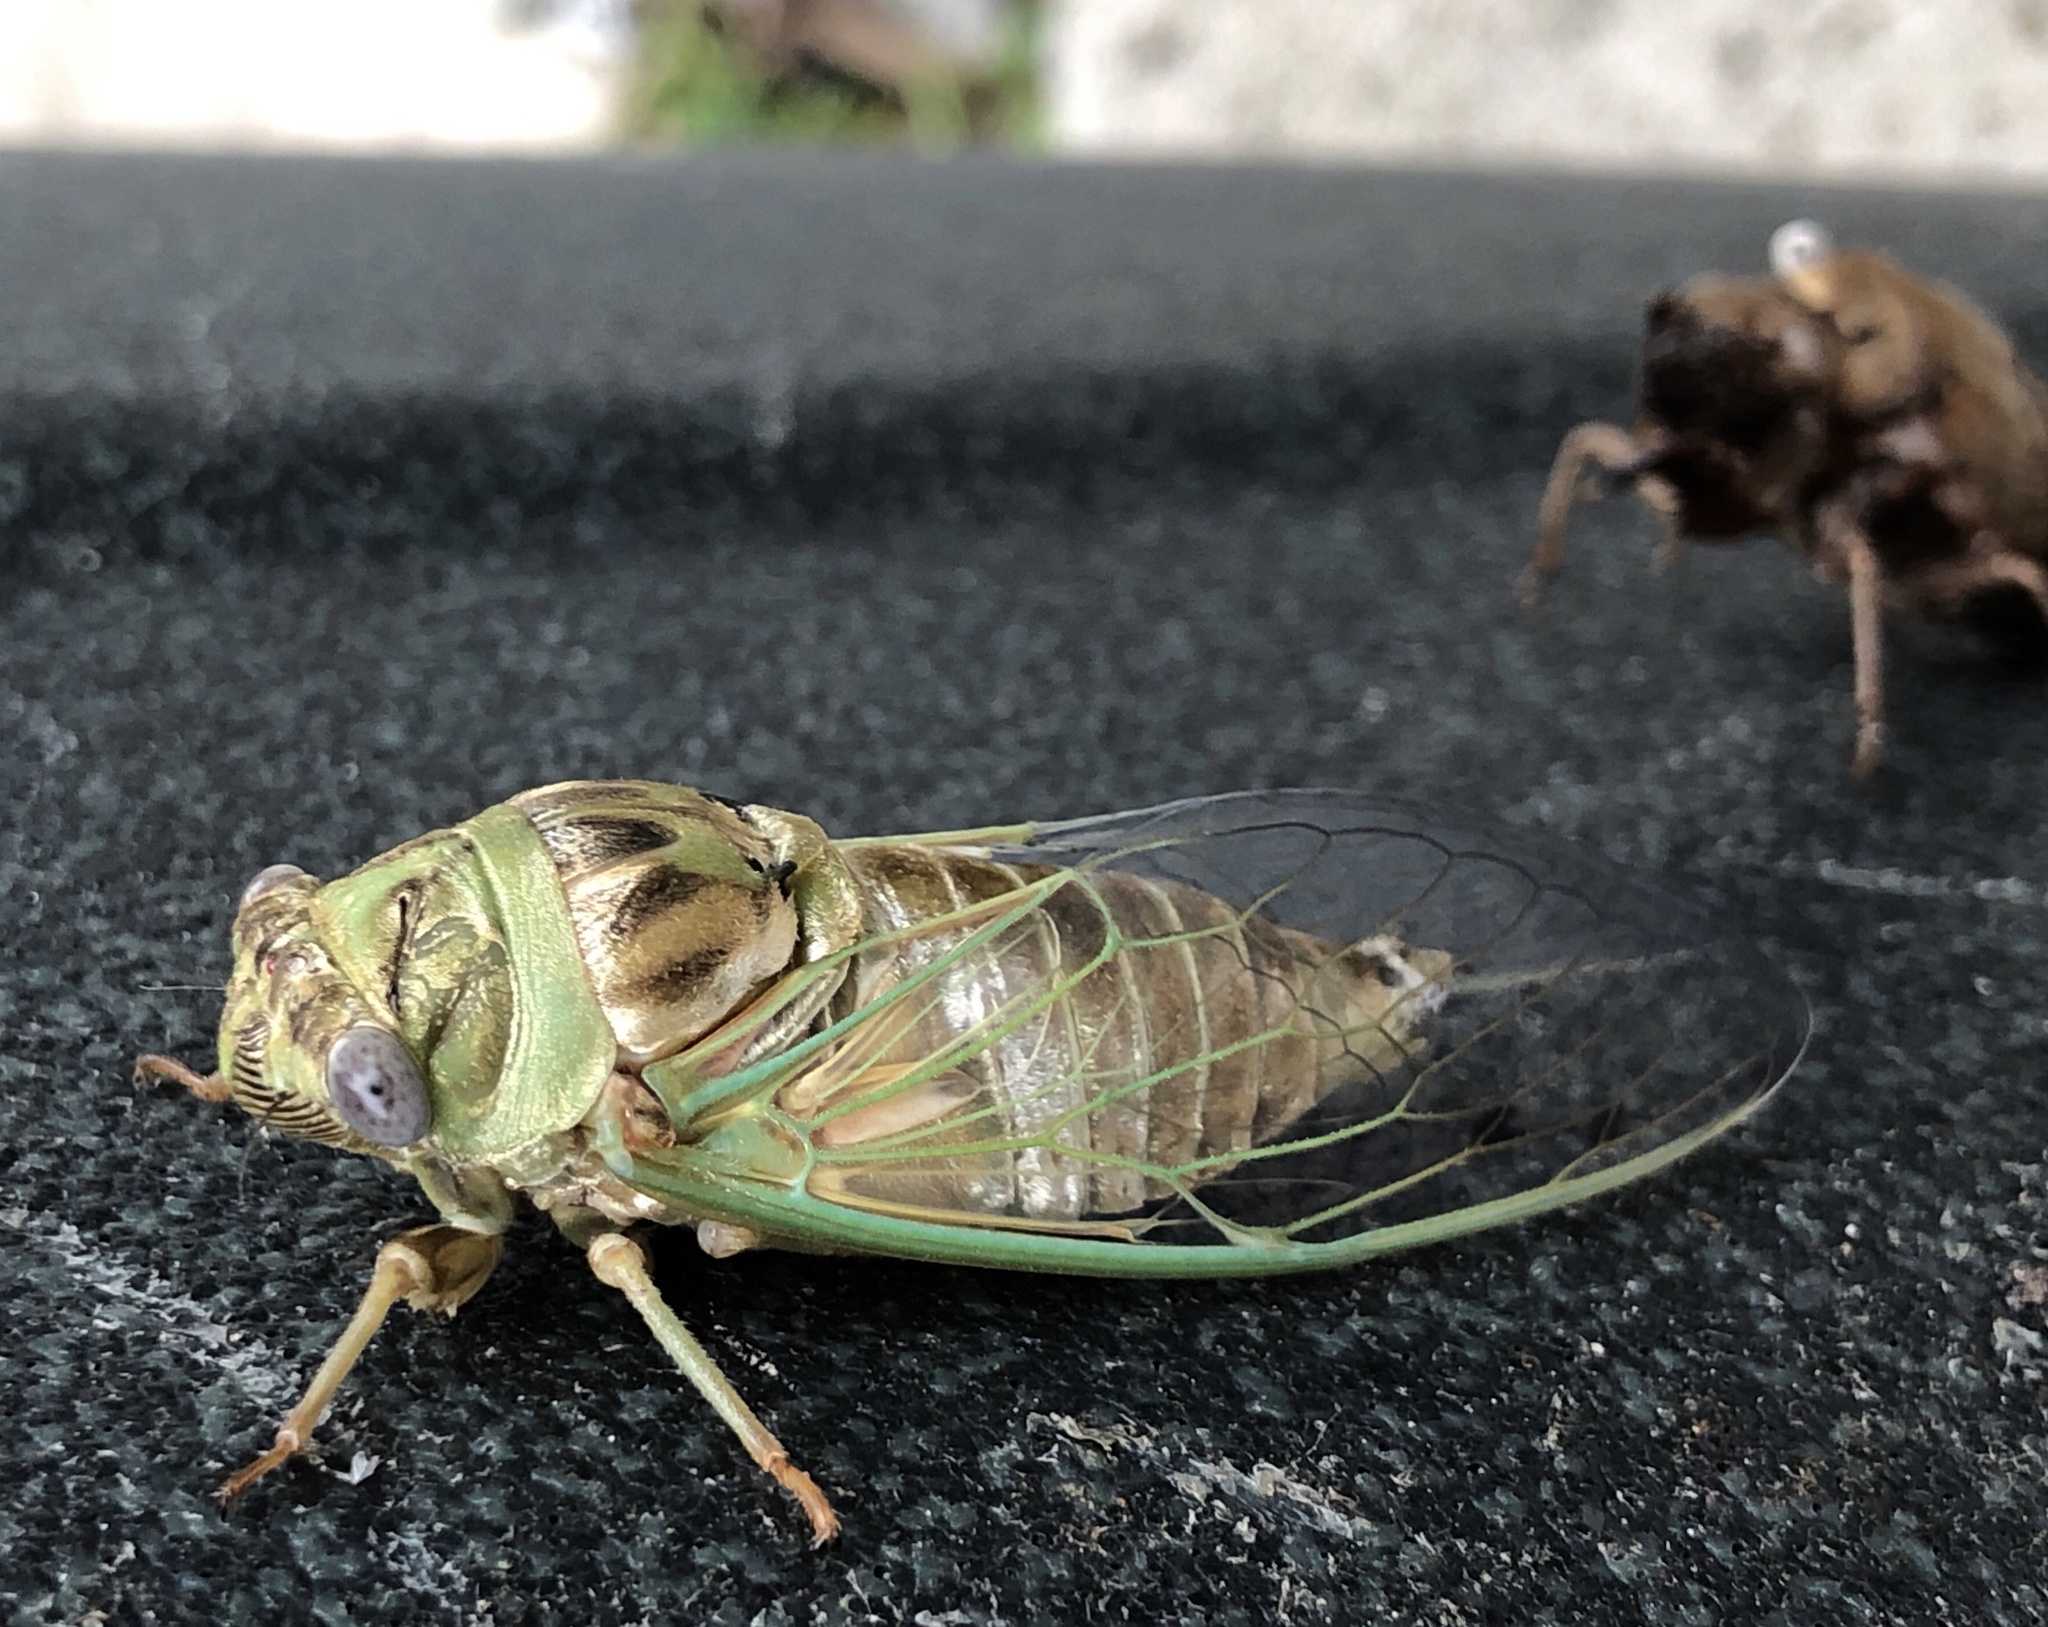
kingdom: Animalia
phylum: Arthropoda
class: Insecta
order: Hemiptera
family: Cicadidae
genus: Megatibicen
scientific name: Megatibicen resh
